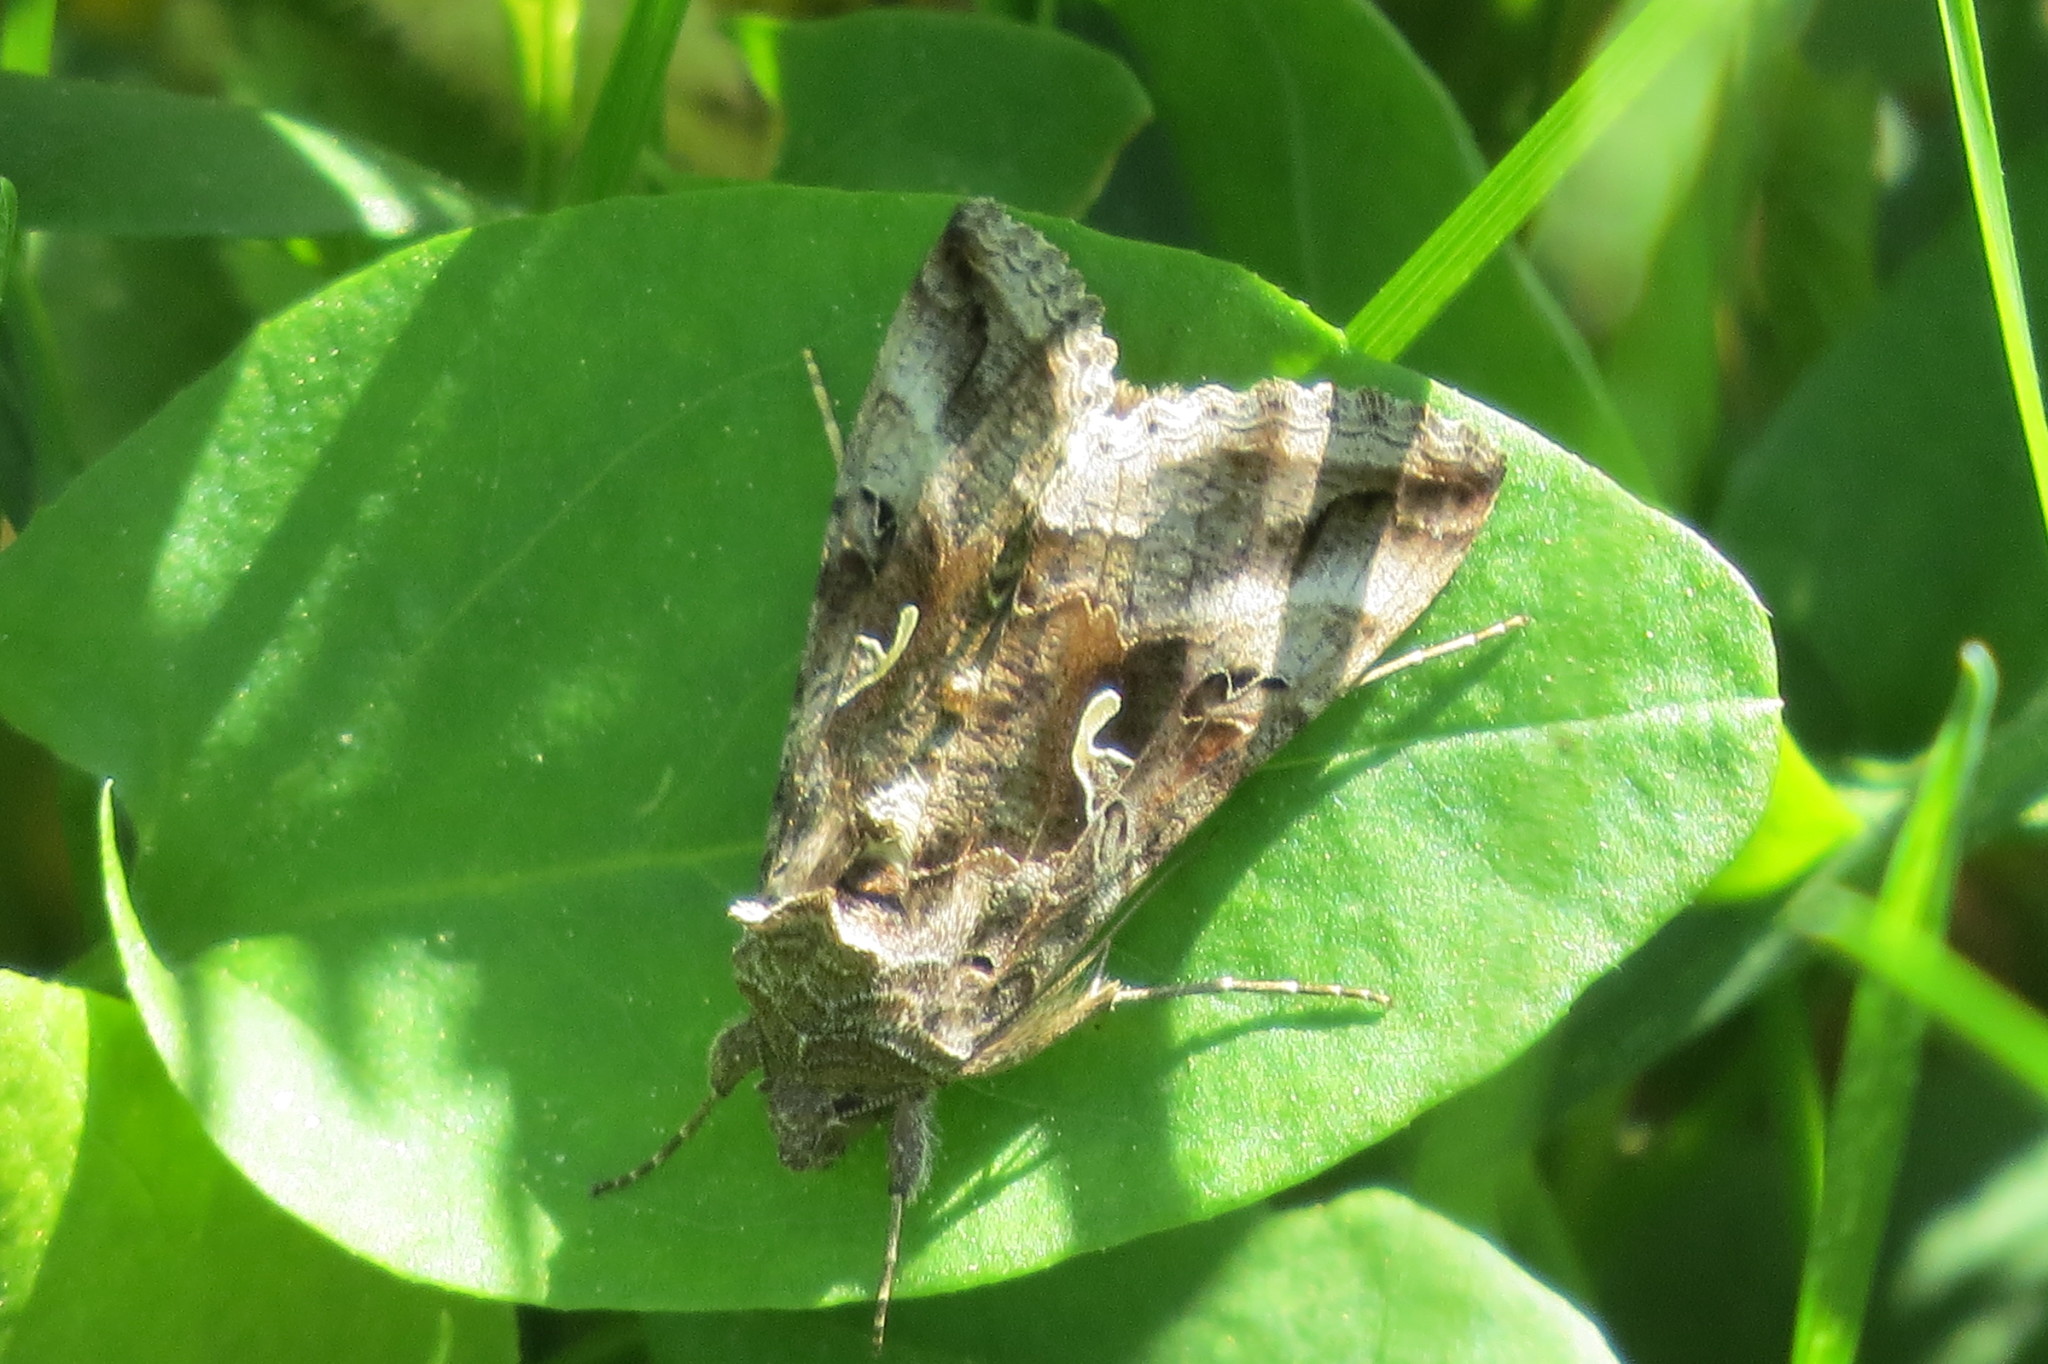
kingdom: Animalia
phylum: Arthropoda
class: Insecta
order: Lepidoptera
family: Noctuidae
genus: Autographa
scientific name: Autographa gamma
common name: Silver y
